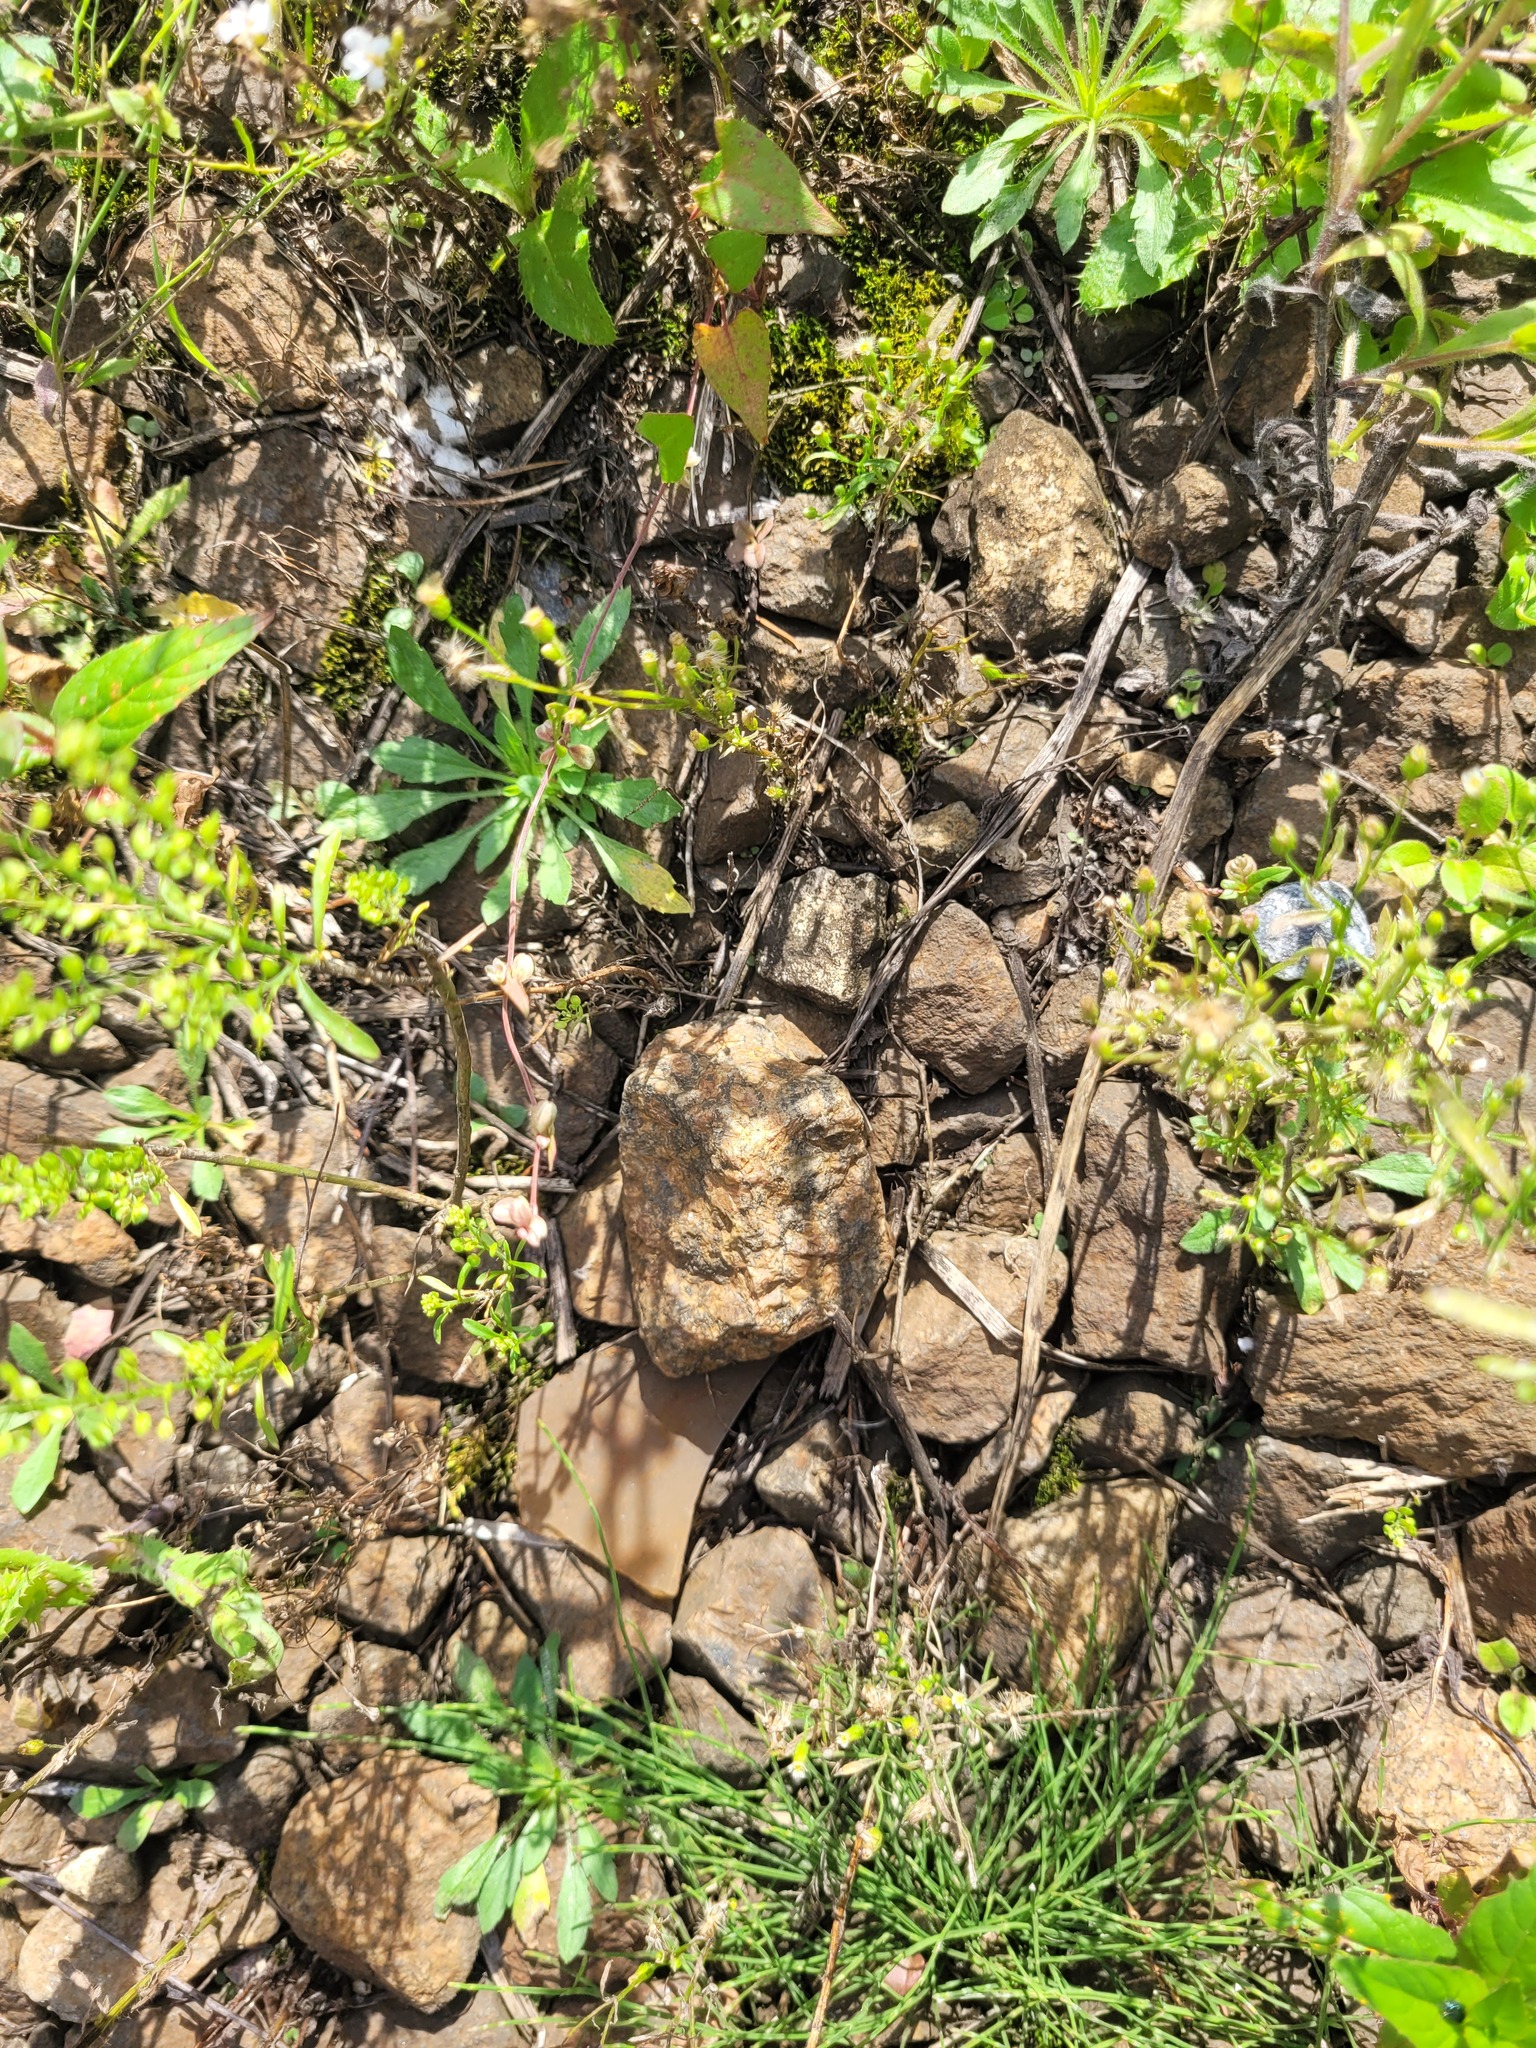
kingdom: Plantae
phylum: Tracheophyta
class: Magnoliopsida
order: Asterales
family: Asteraceae
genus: Erigeron
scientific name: Erigeron canadensis
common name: Canadian fleabane
